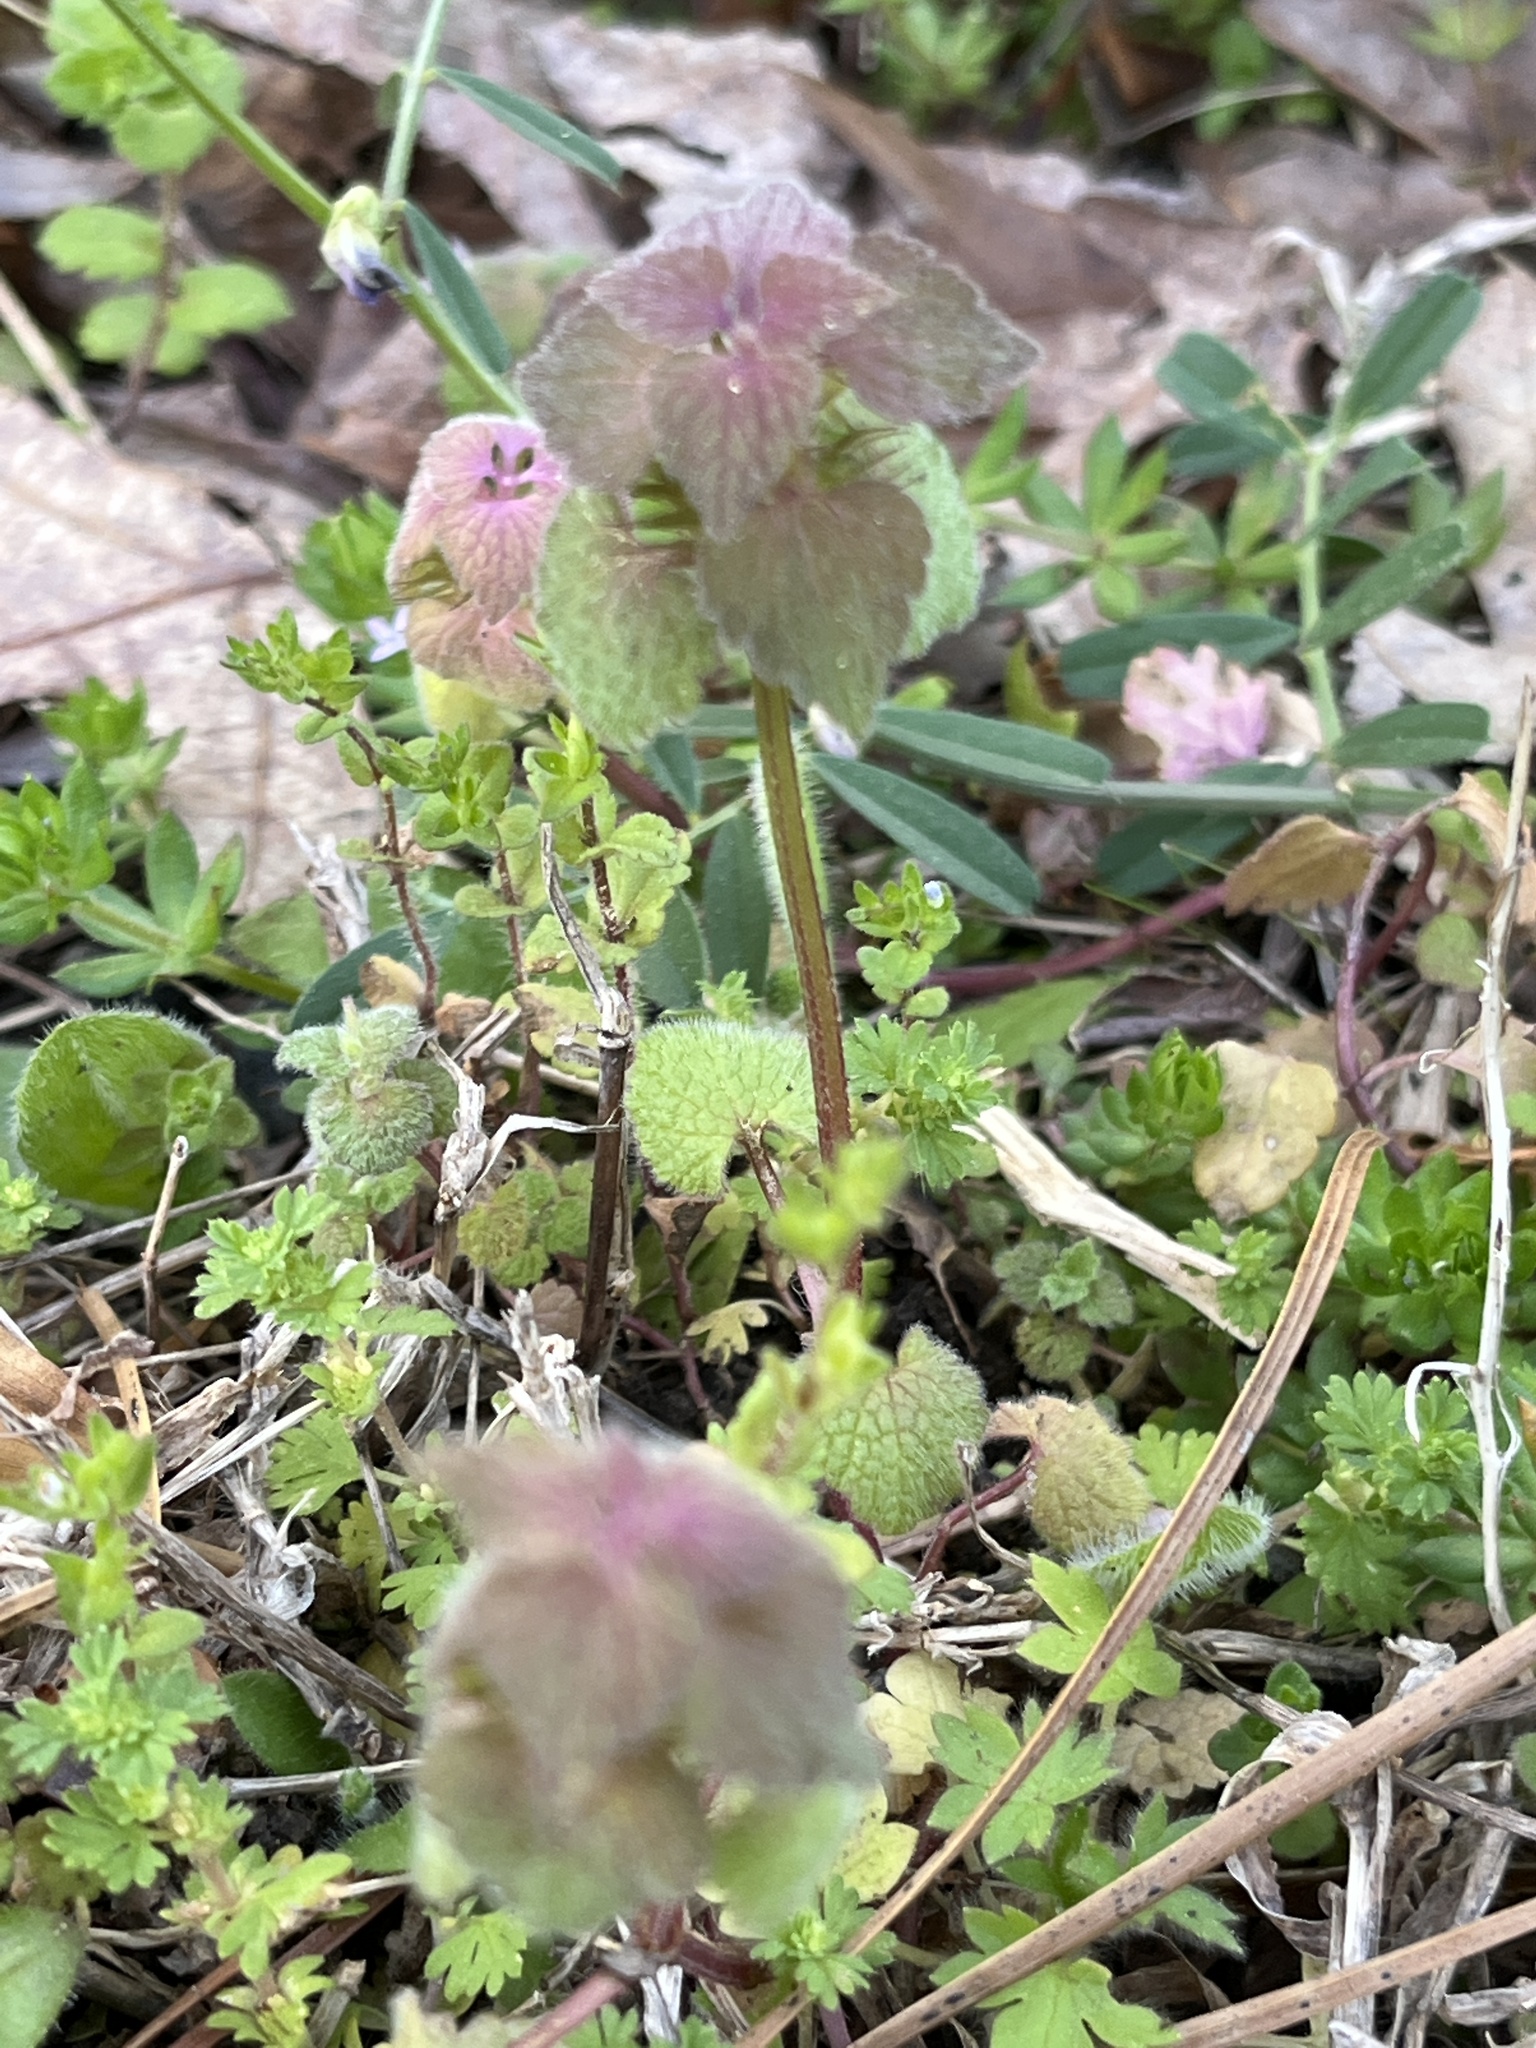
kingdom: Plantae
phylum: Tracheophyta
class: Magnoliopsida
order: Lamiales
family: Lamiaceae
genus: Lamium
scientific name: Lamium purpureum
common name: Red dead-nettle
